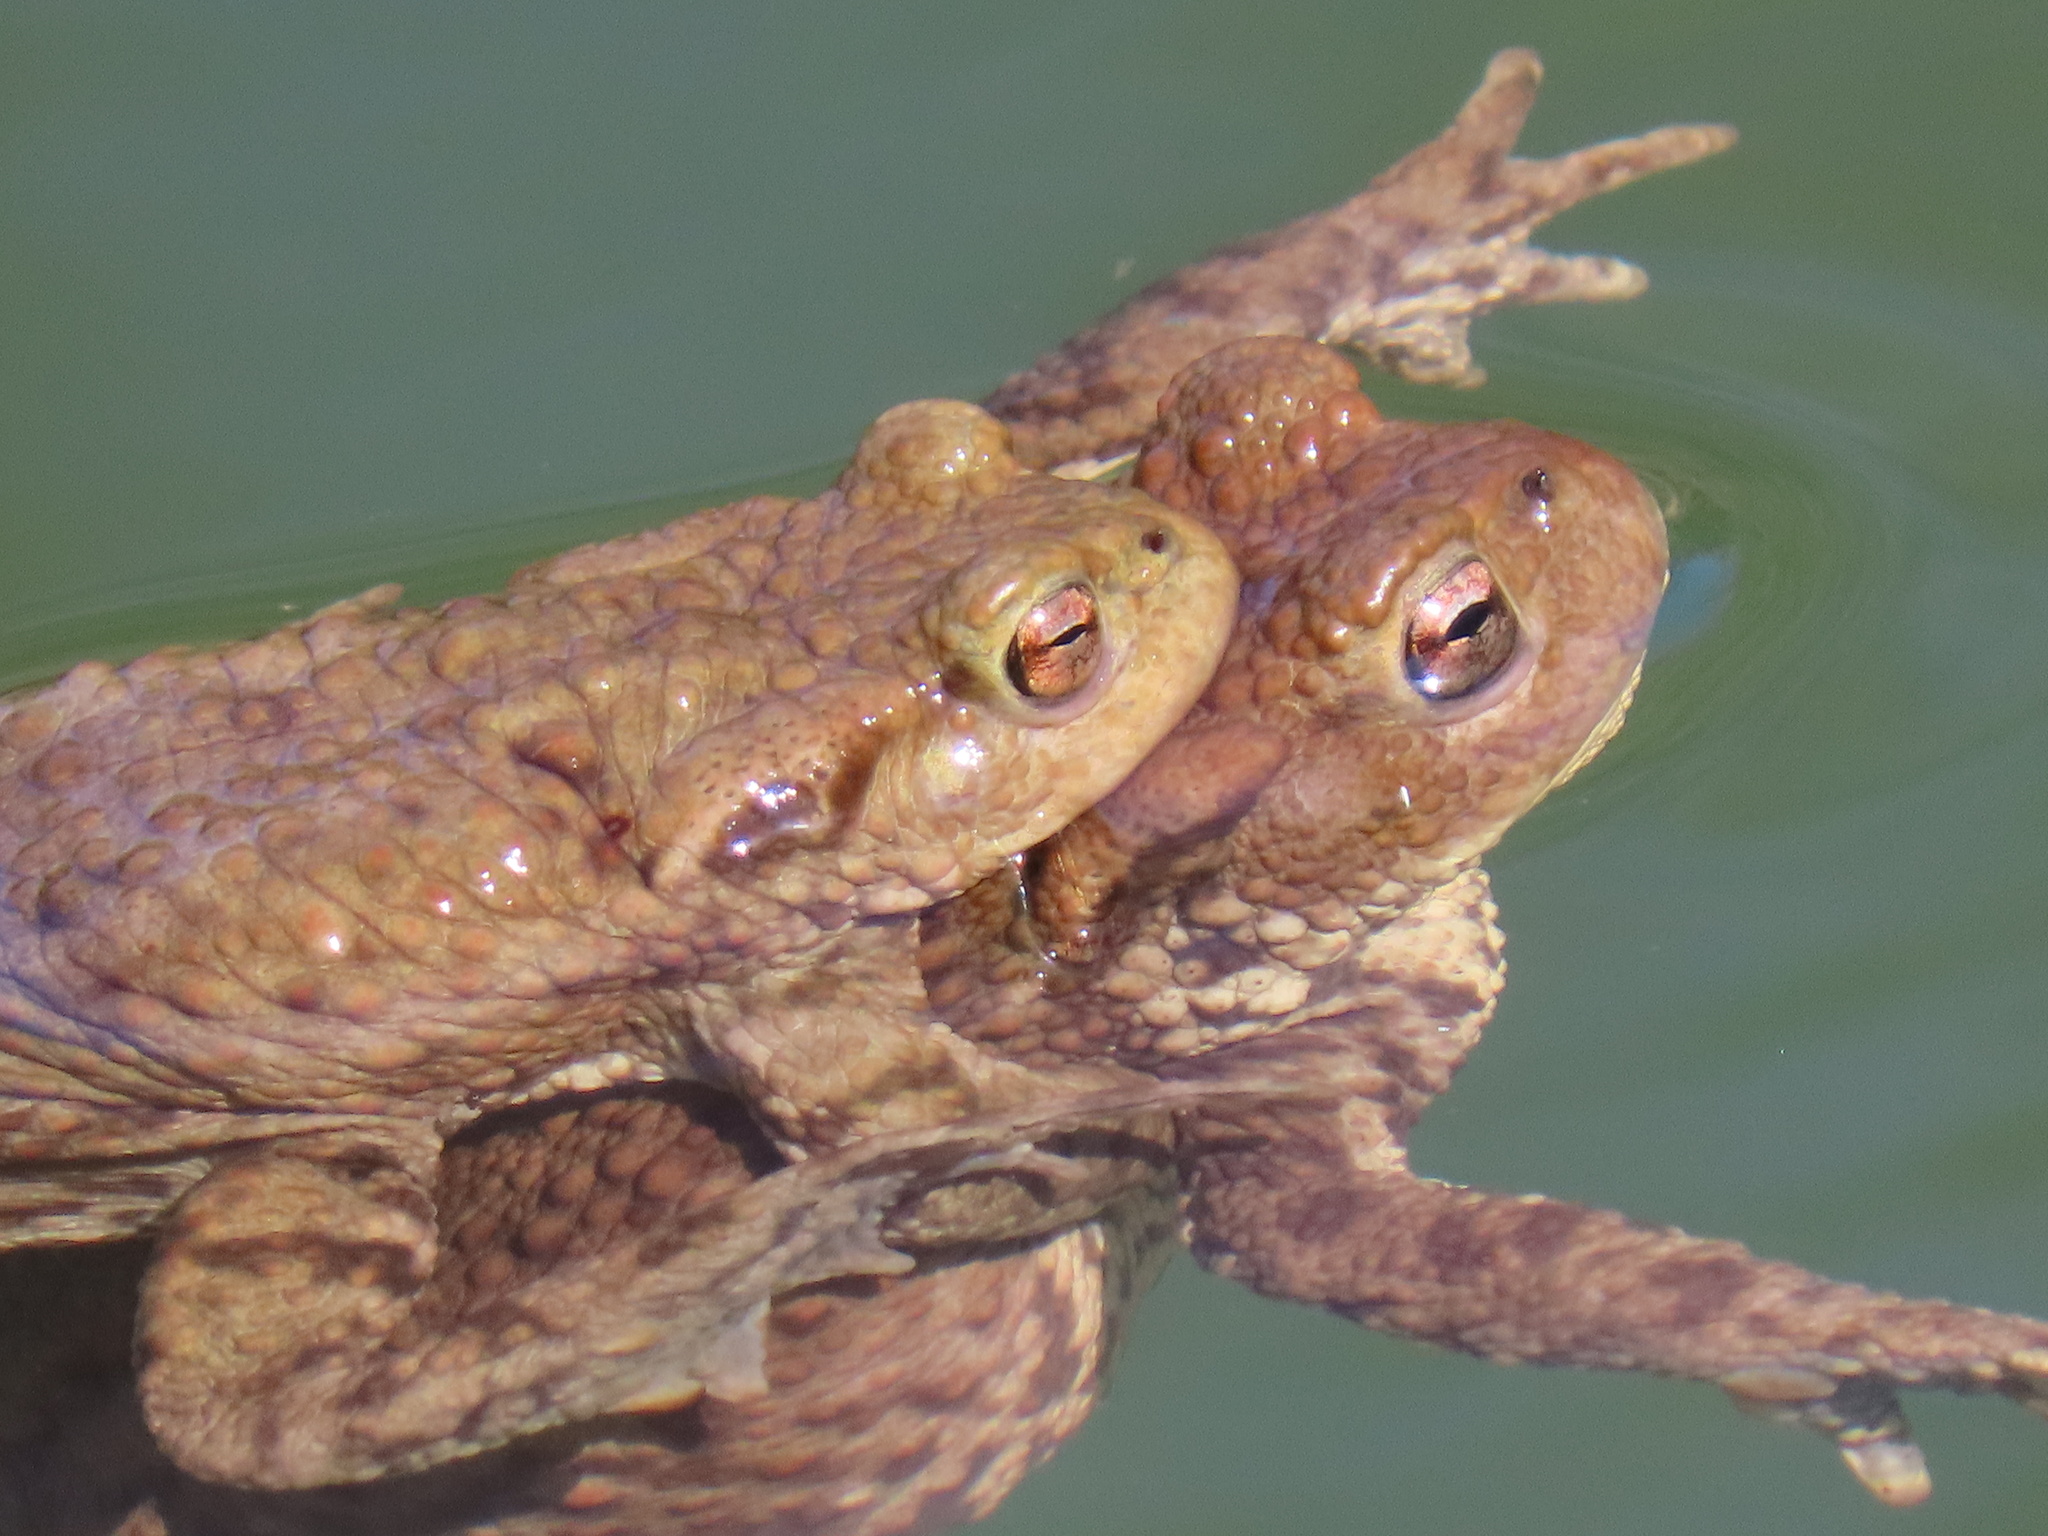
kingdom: Animalia
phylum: Chordata
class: Amphibia
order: Anura
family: Bufonidae
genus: Bufo
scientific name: Bufo bufo
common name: Common toad
